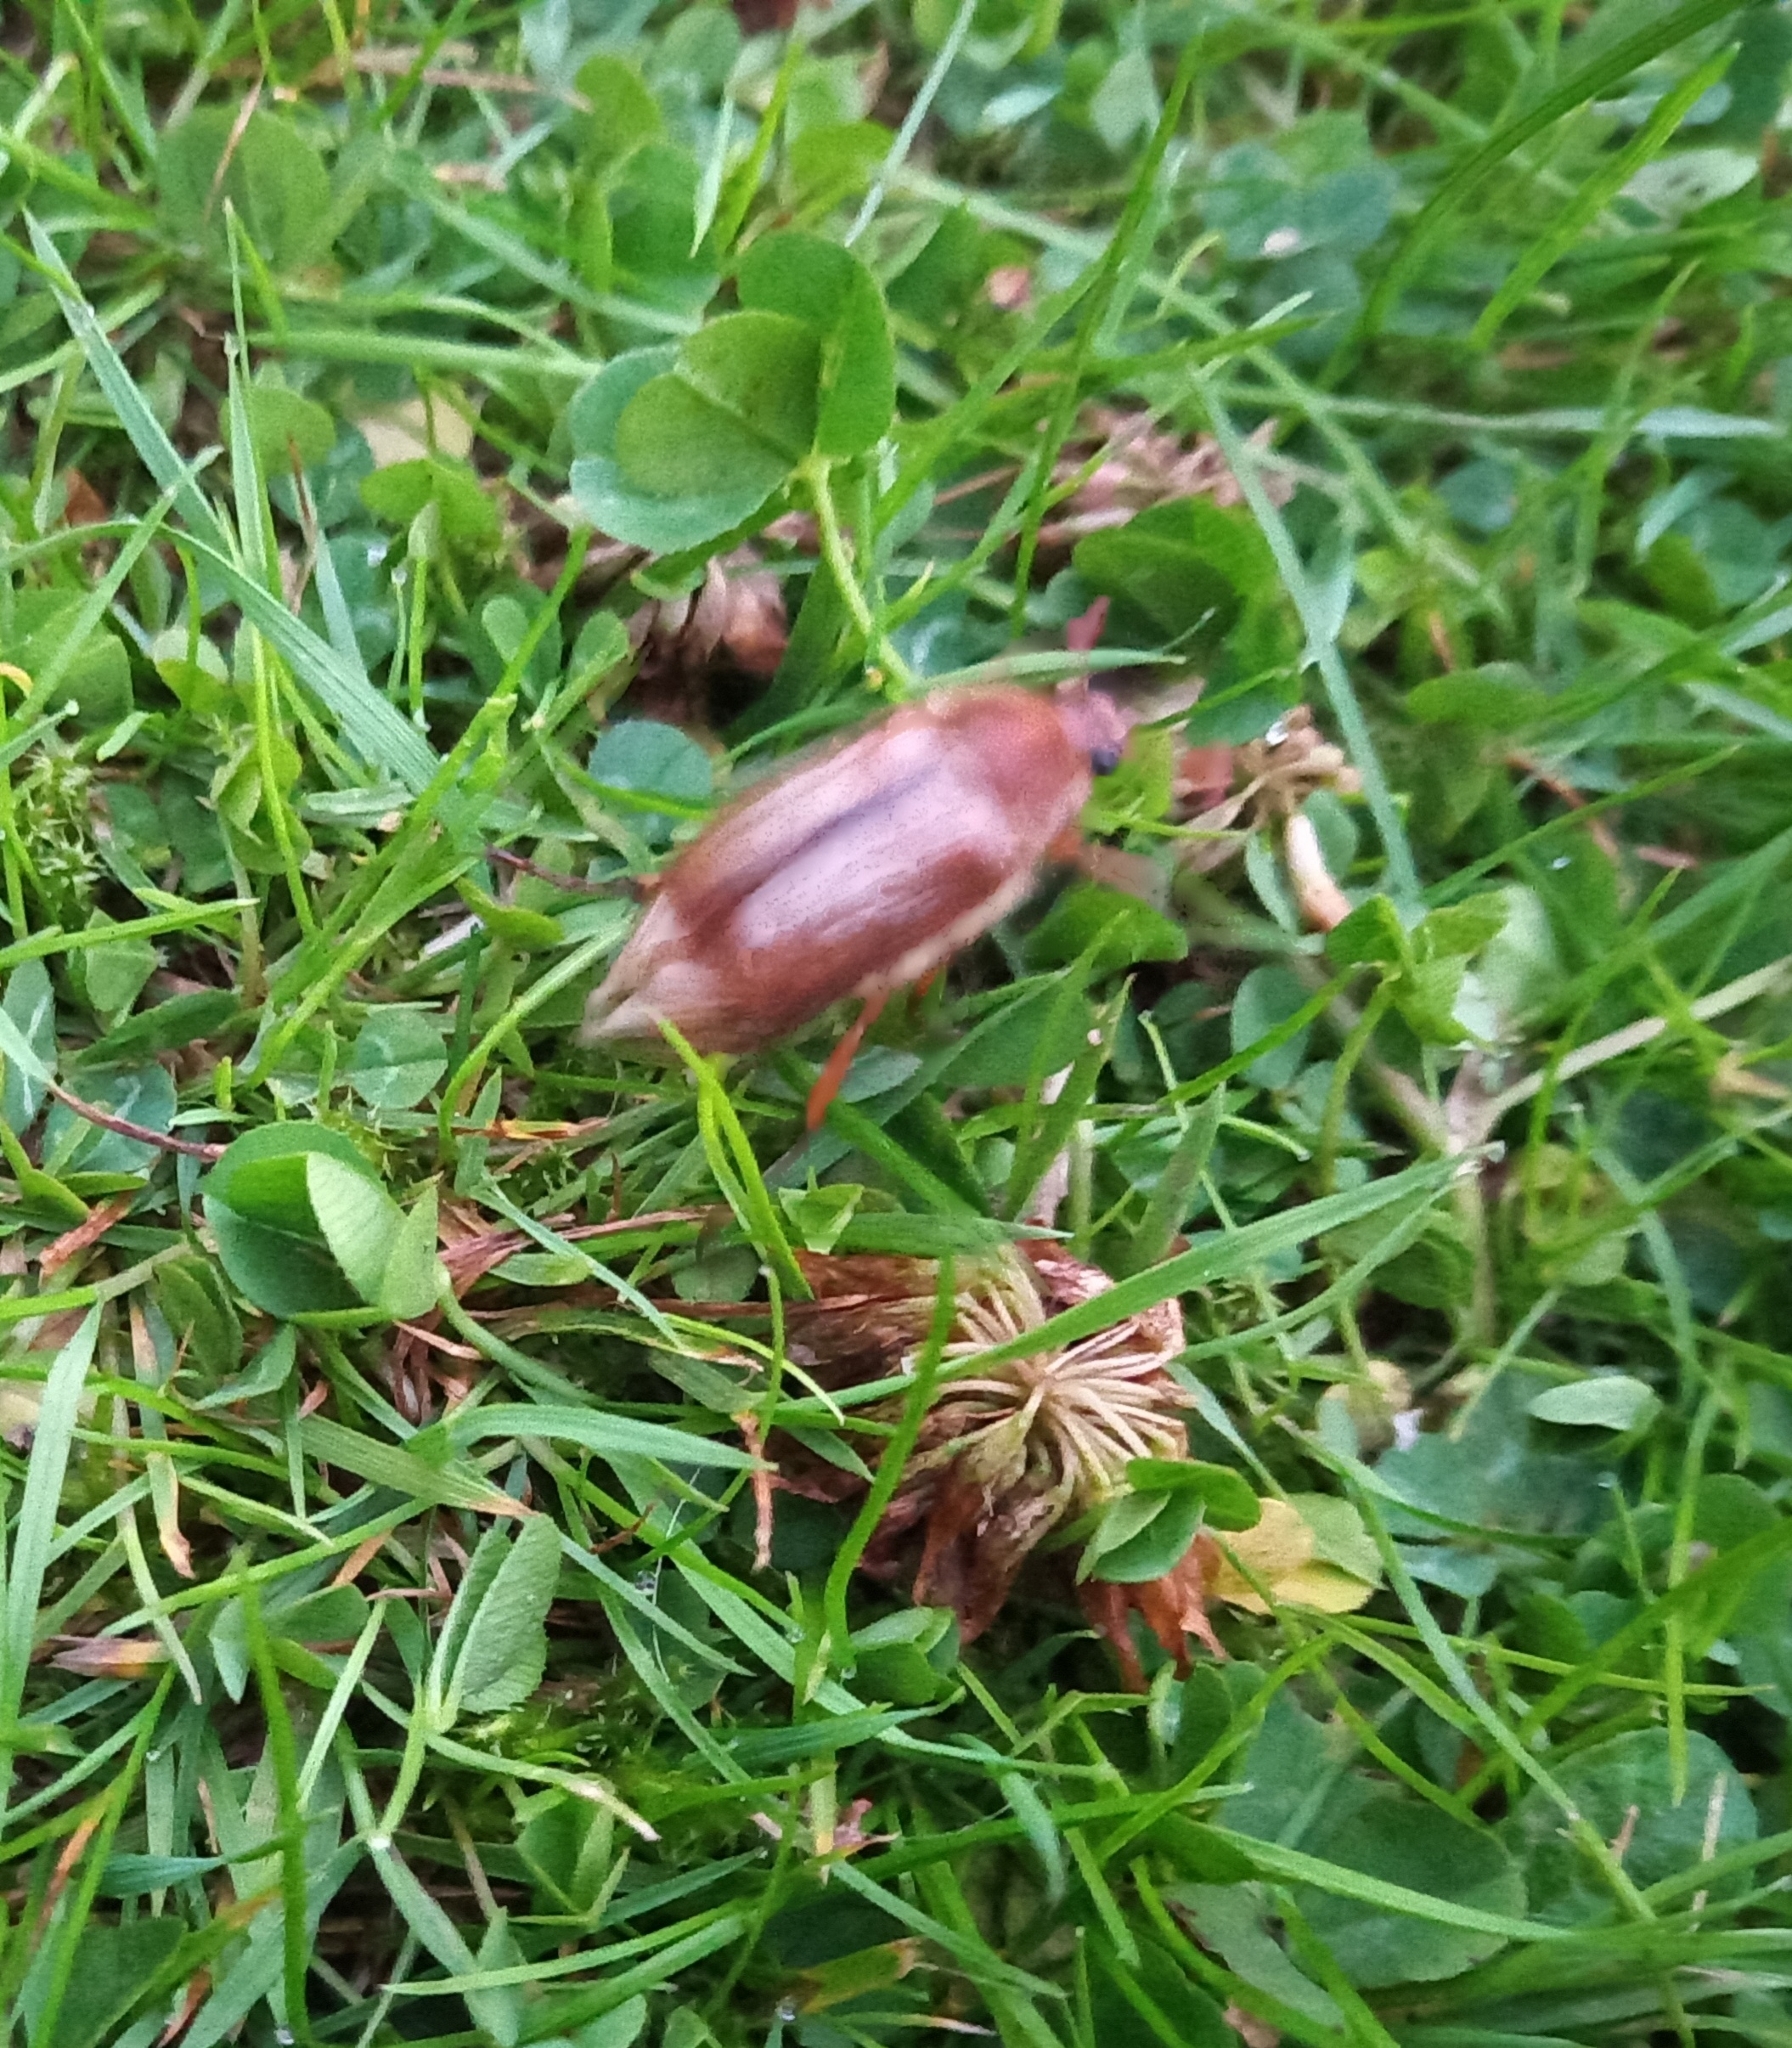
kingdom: Animalia
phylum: Arthropoda
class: Insecta
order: Coleoptera
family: Scarabaeidae
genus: Amphimallon
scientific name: Amphimallon solstitiale
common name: Summer chafer
